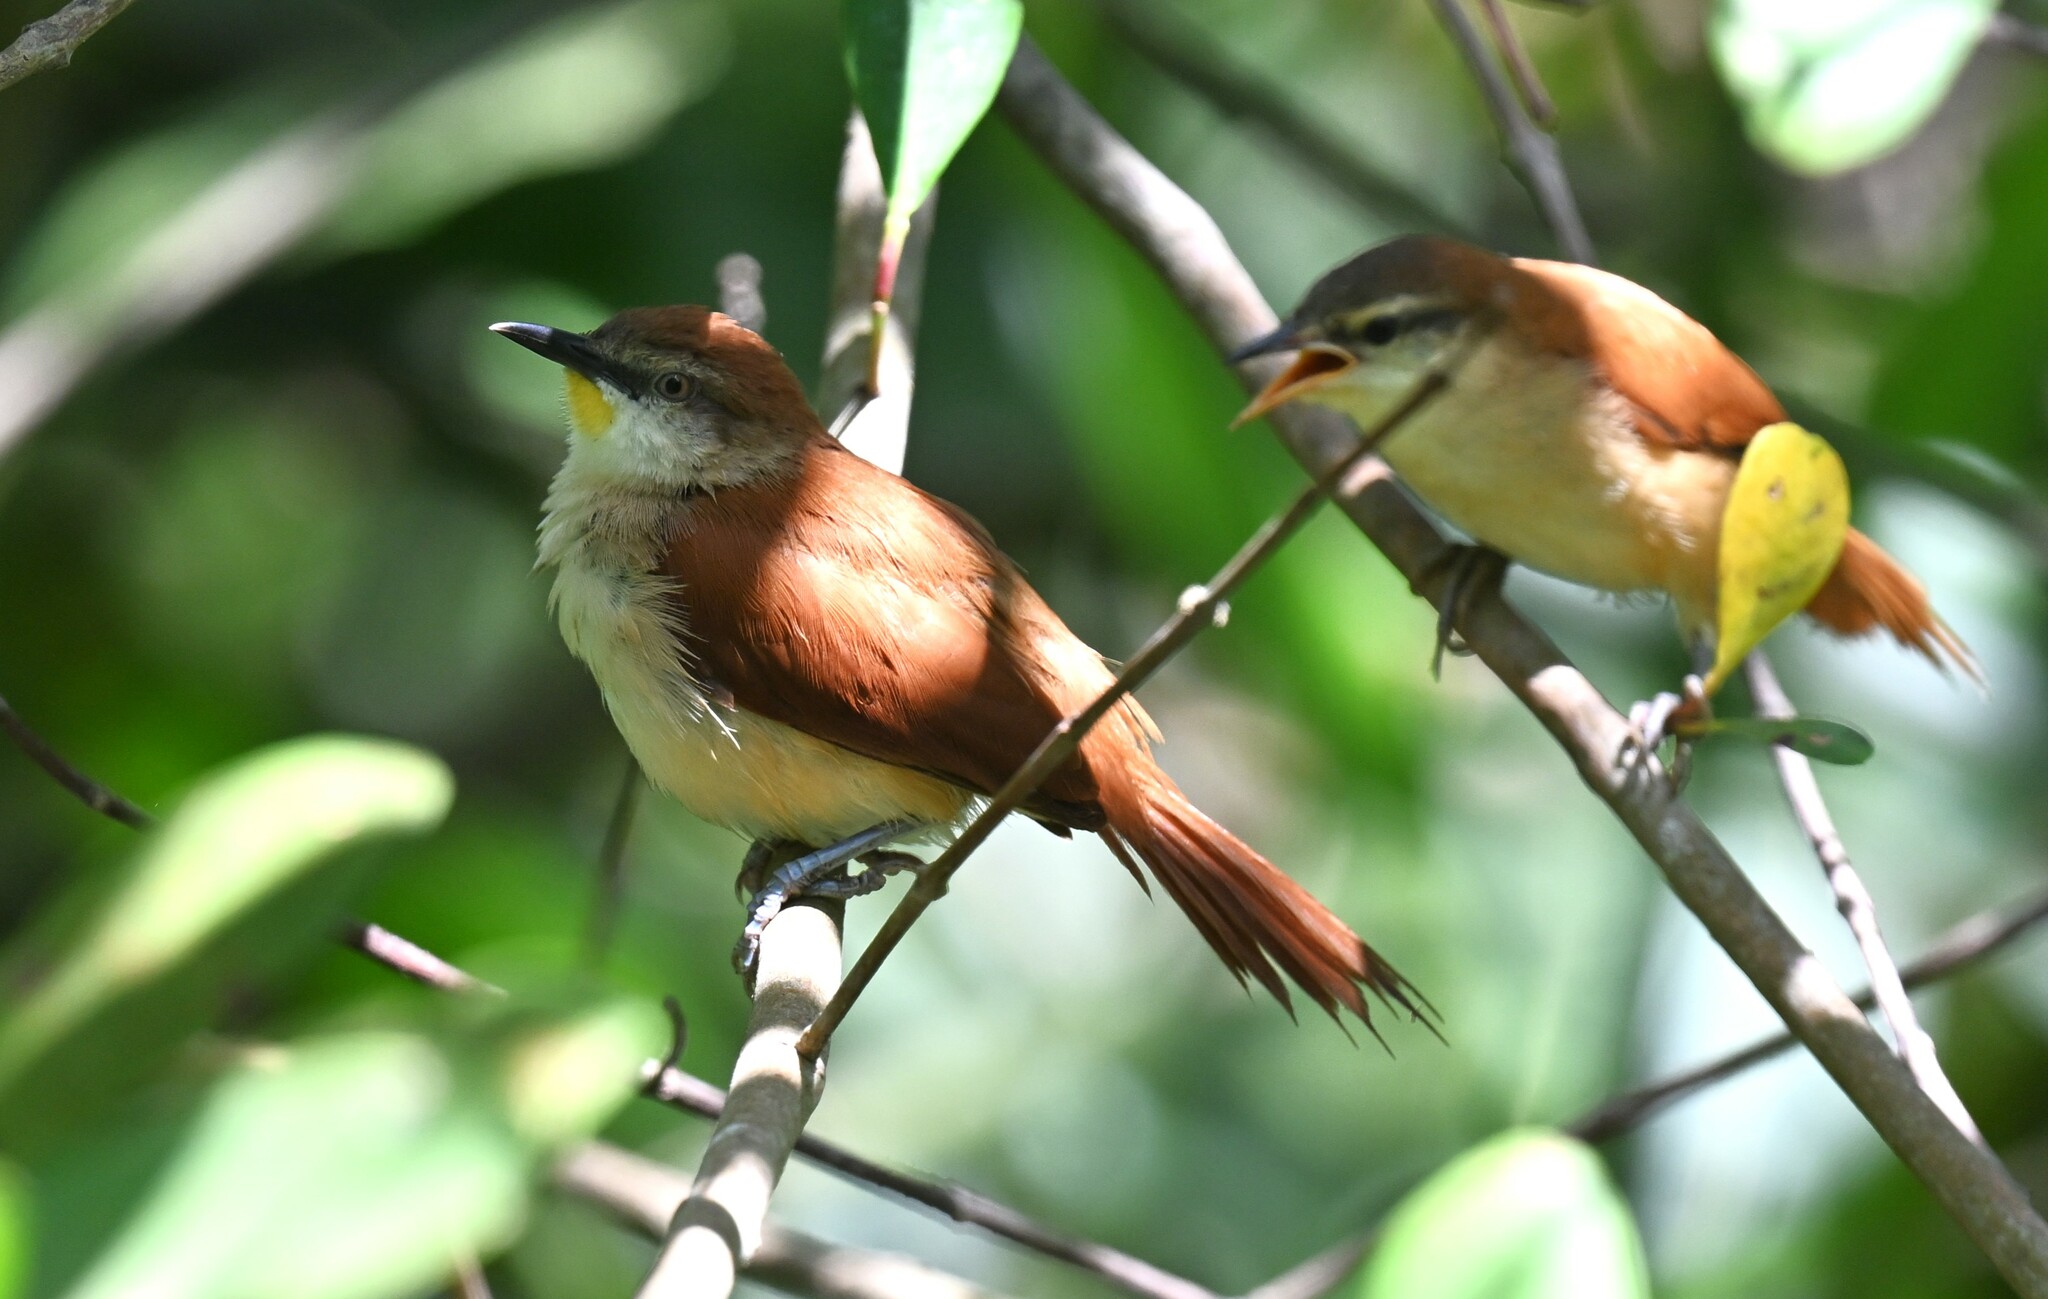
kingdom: Animalia
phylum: Chordata
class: Aves
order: Passeriformes
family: Furnariidae
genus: Certhiaxis
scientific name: Certhiaxis cinnamomeus
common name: Yellow-chinned spinetail
